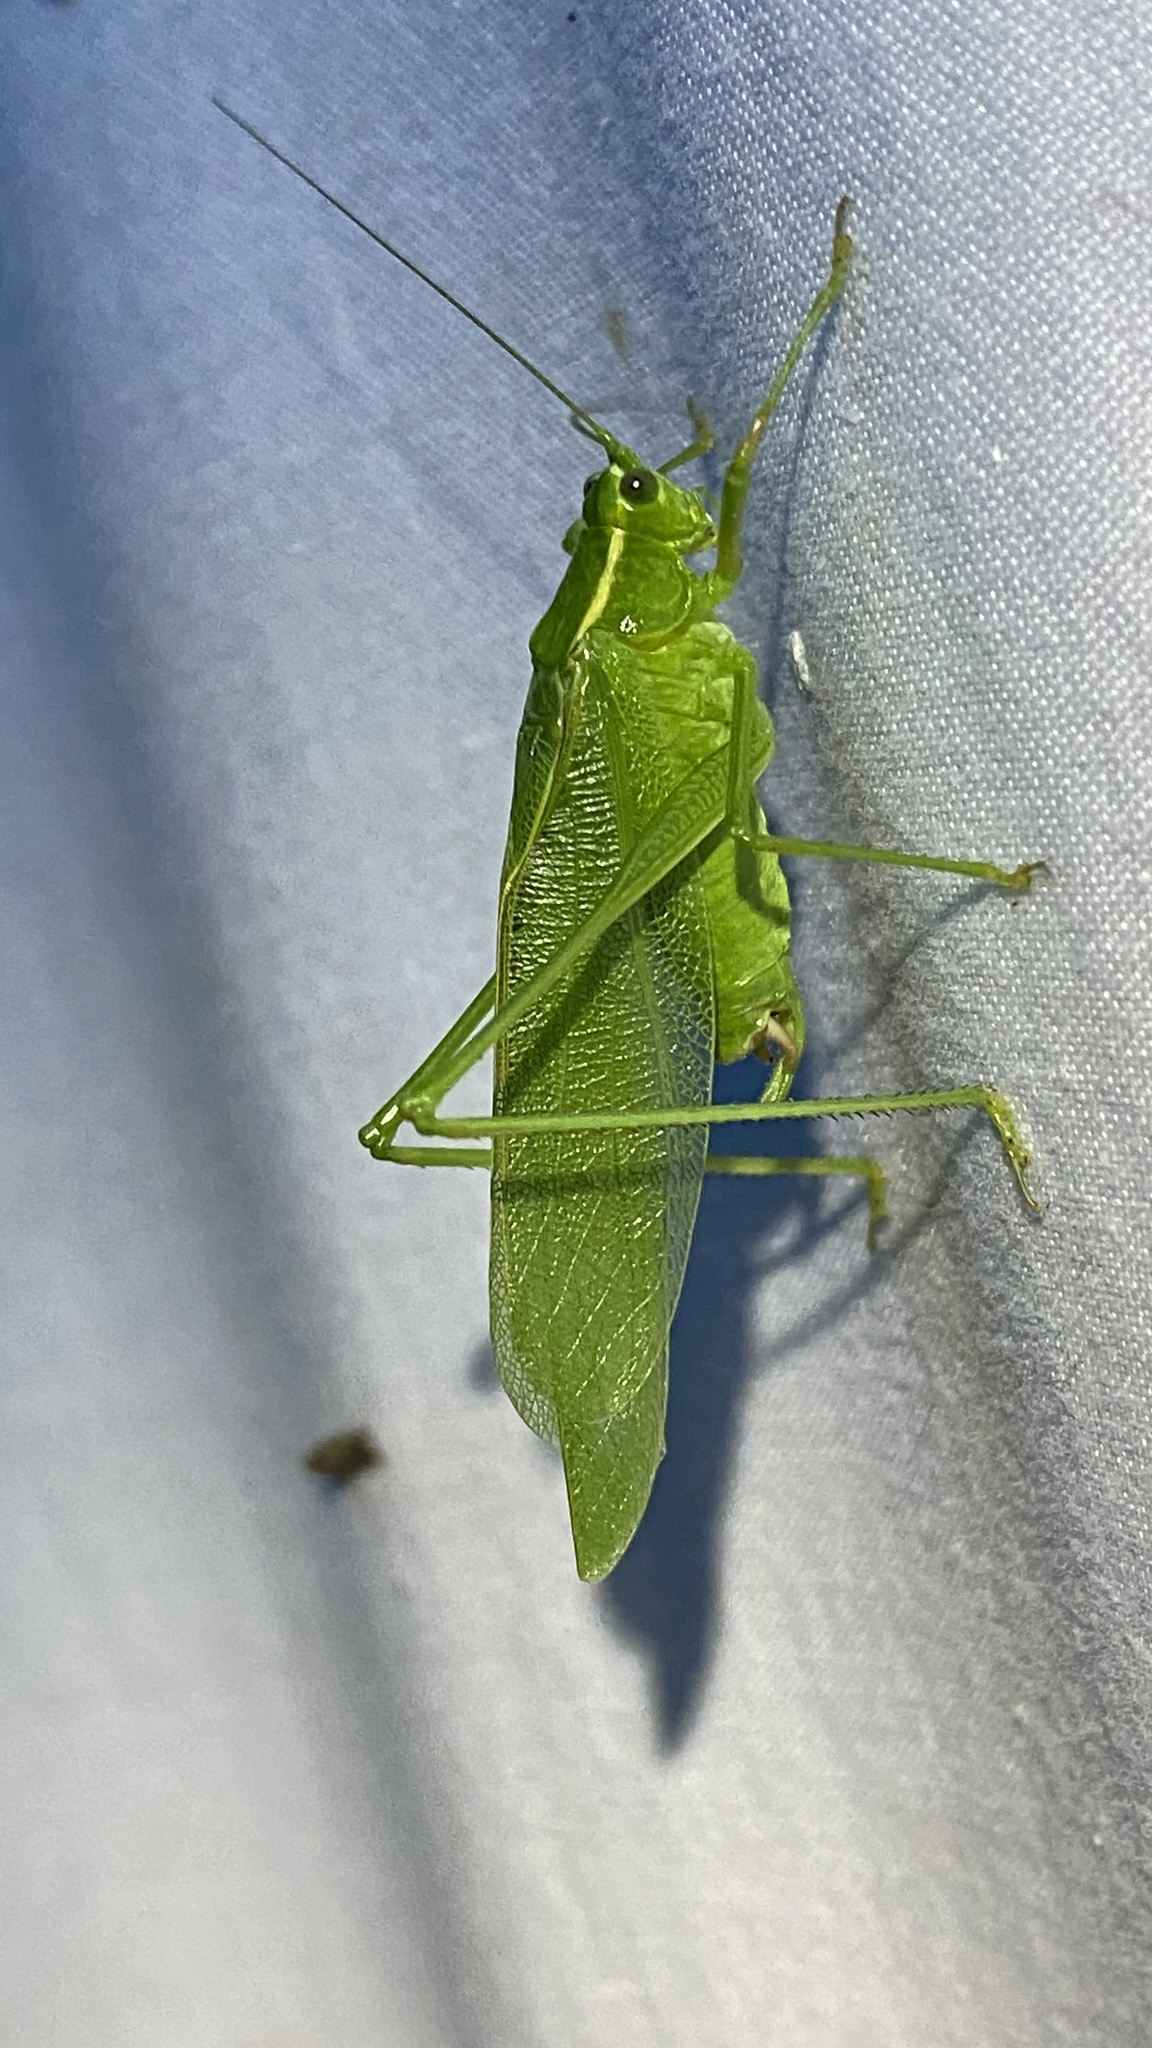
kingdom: Animalia
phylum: Arthropoda
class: Insecta
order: Orthoptera
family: Tettigoniidae
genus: Scudderia
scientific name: Scudderia septentrionalis
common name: Northern bush-katydid
